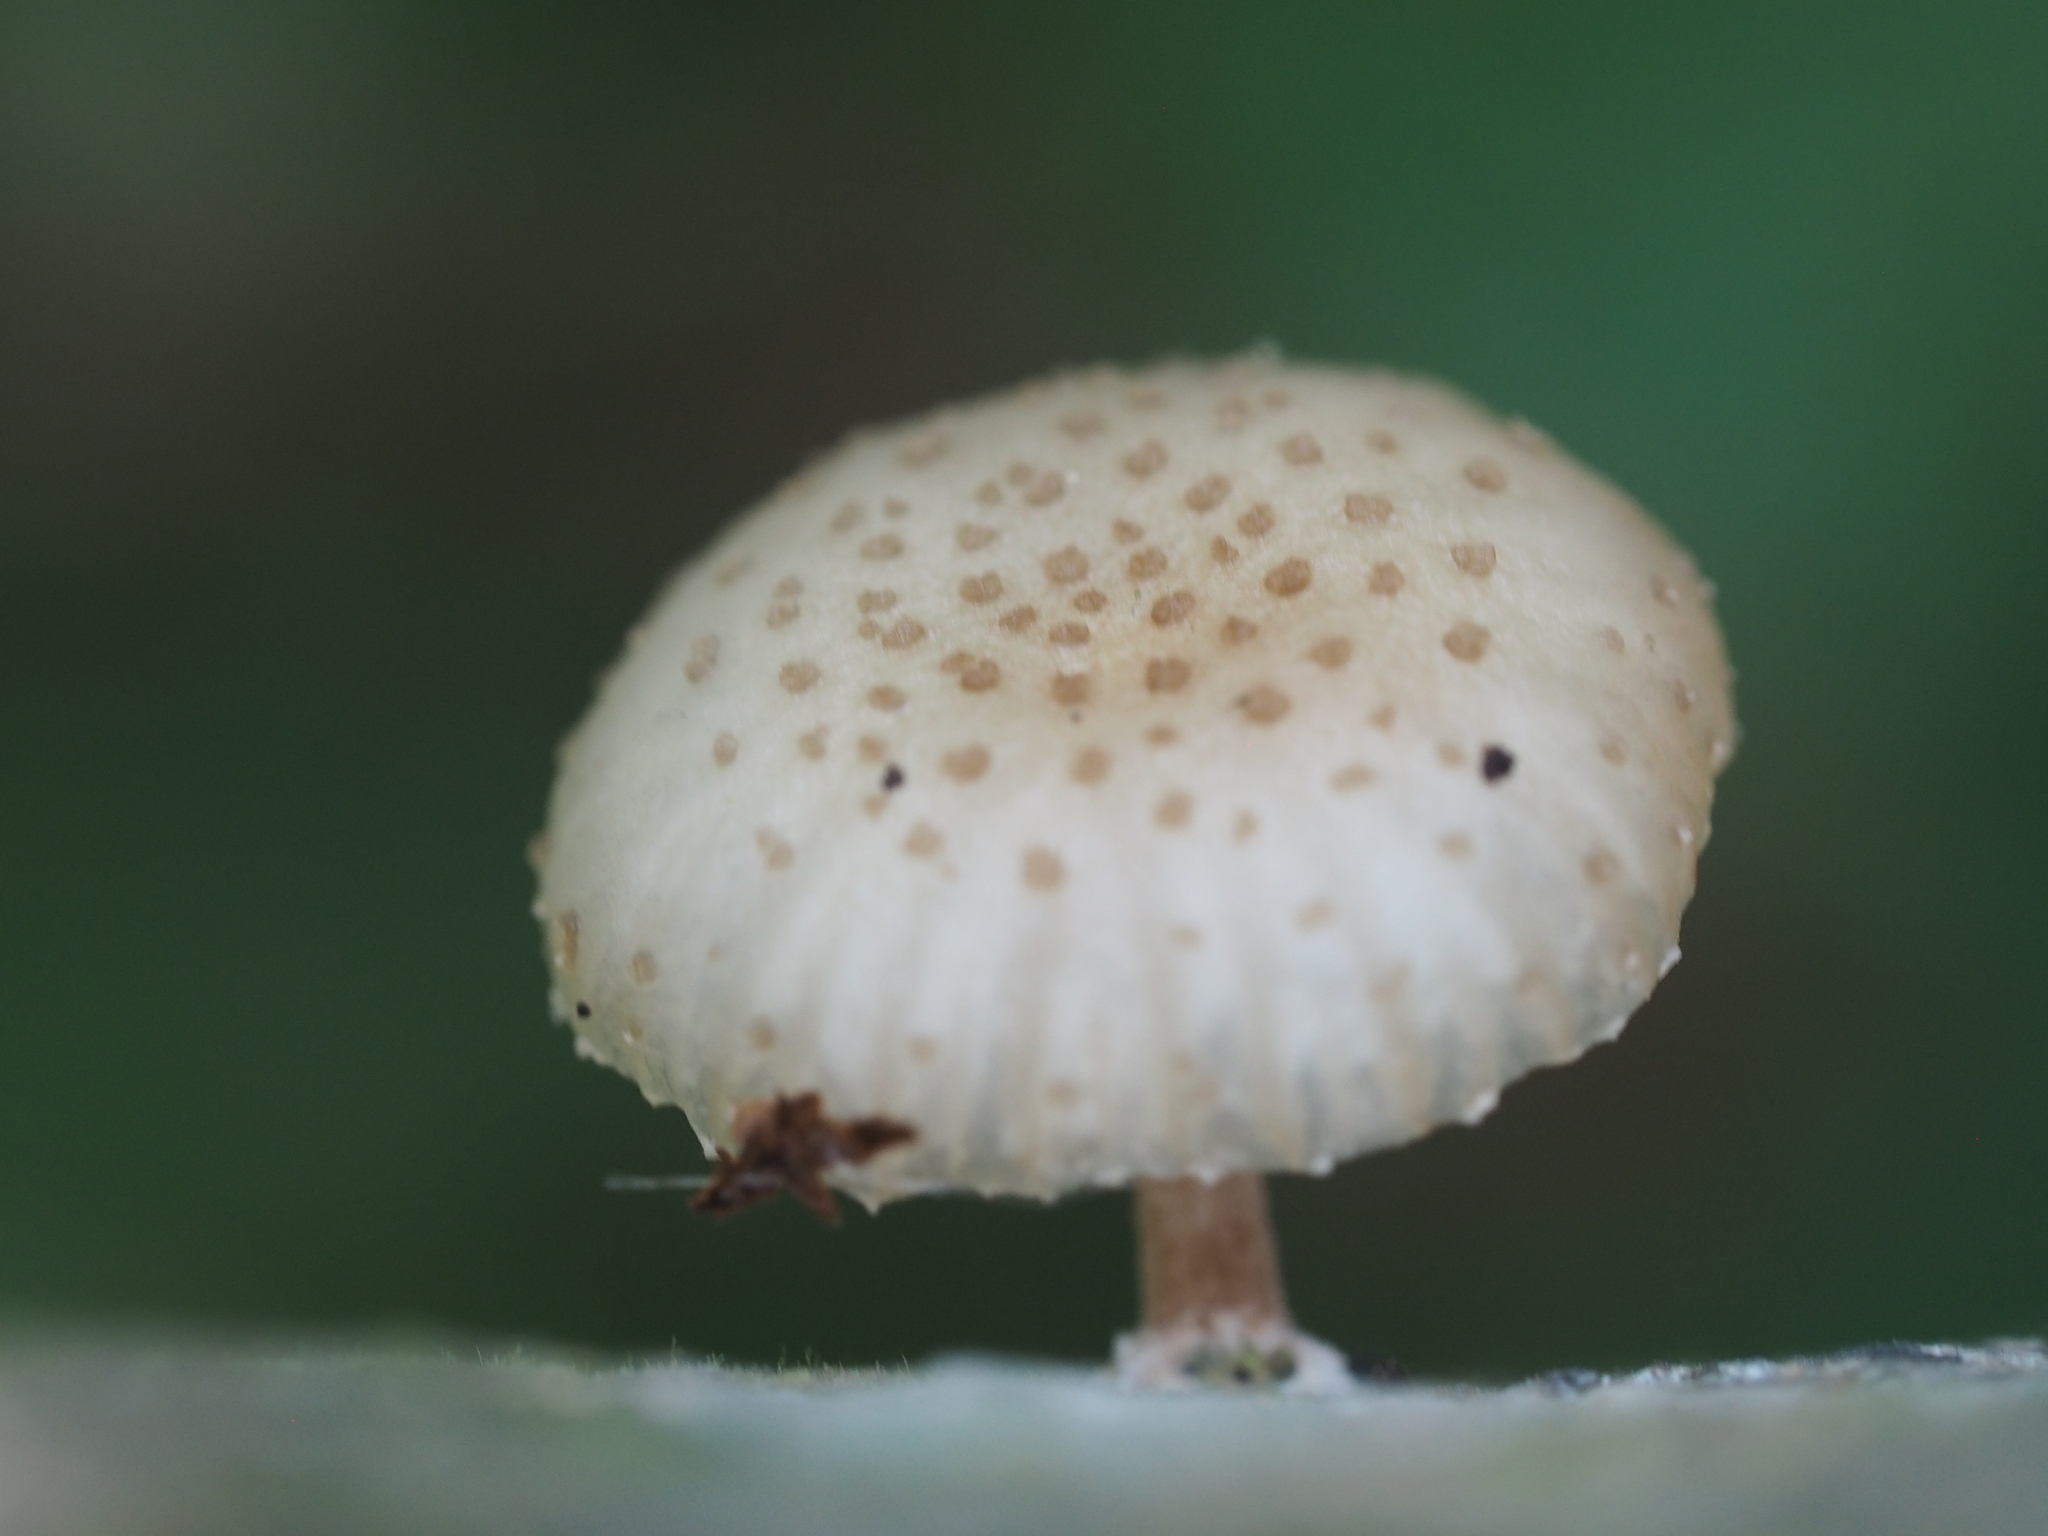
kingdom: Fungi
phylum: Basidiomycota
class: Agaricomycetes
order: Agaricales
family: Physalacriaceae
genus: Oudemansiella
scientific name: Oudemansiella canarii
